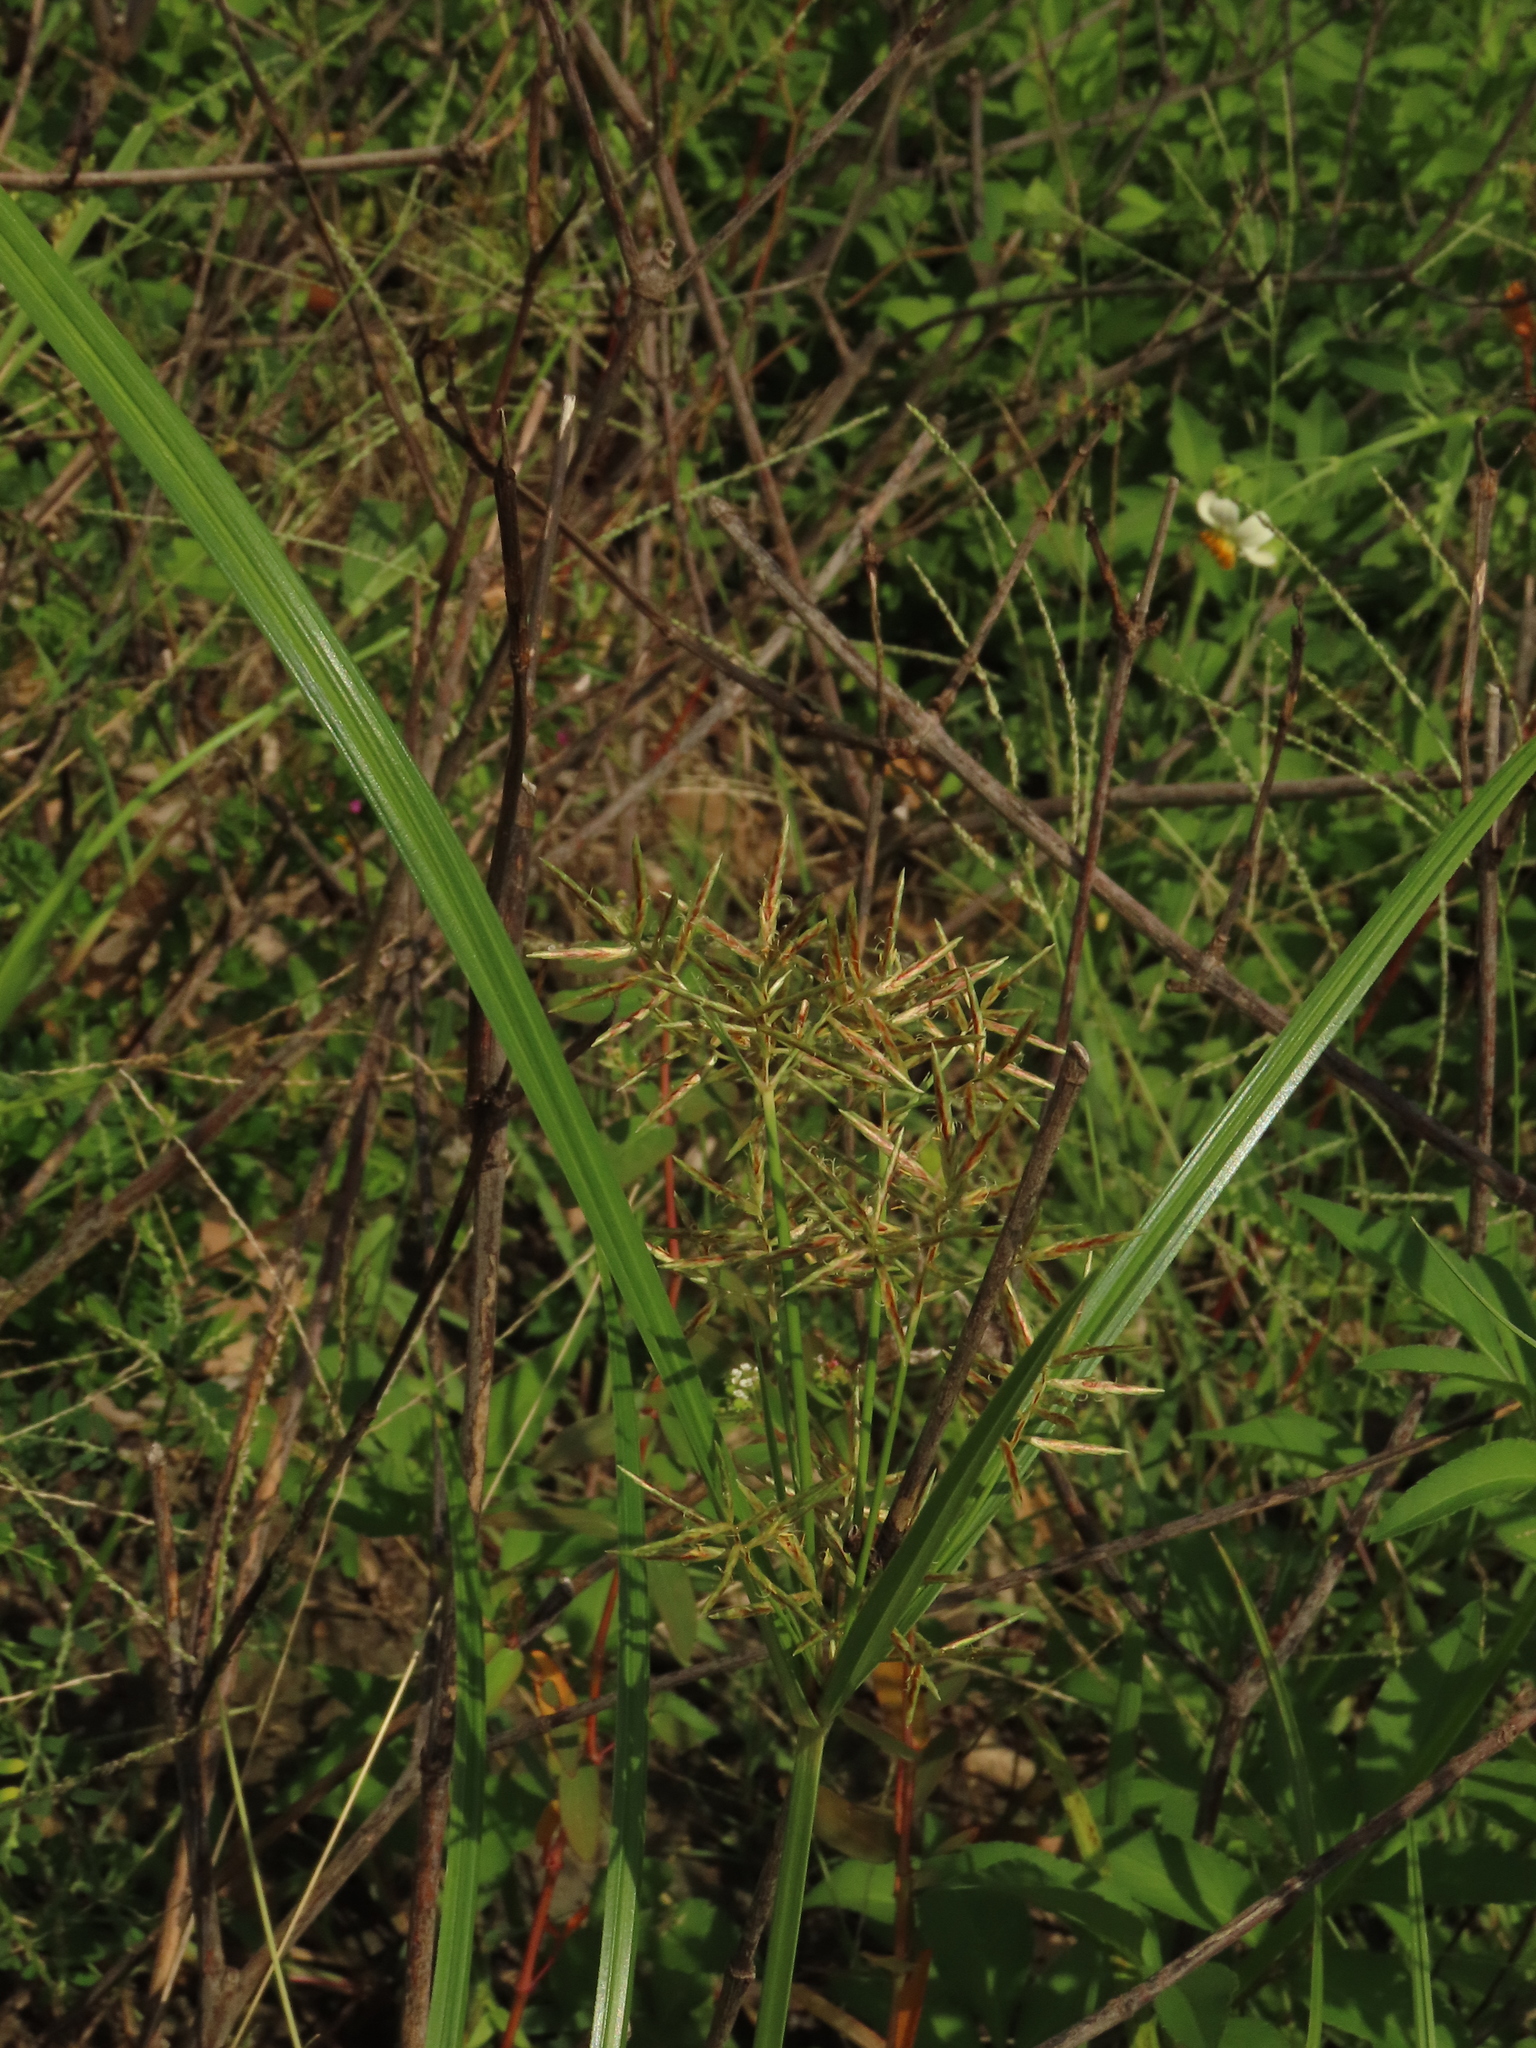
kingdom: Plantae
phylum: Tracheophyta
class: Liliopsida
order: Poales
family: Cyperaceae
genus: Cyperus
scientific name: Cyperus rotundus
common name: Nutgrass
